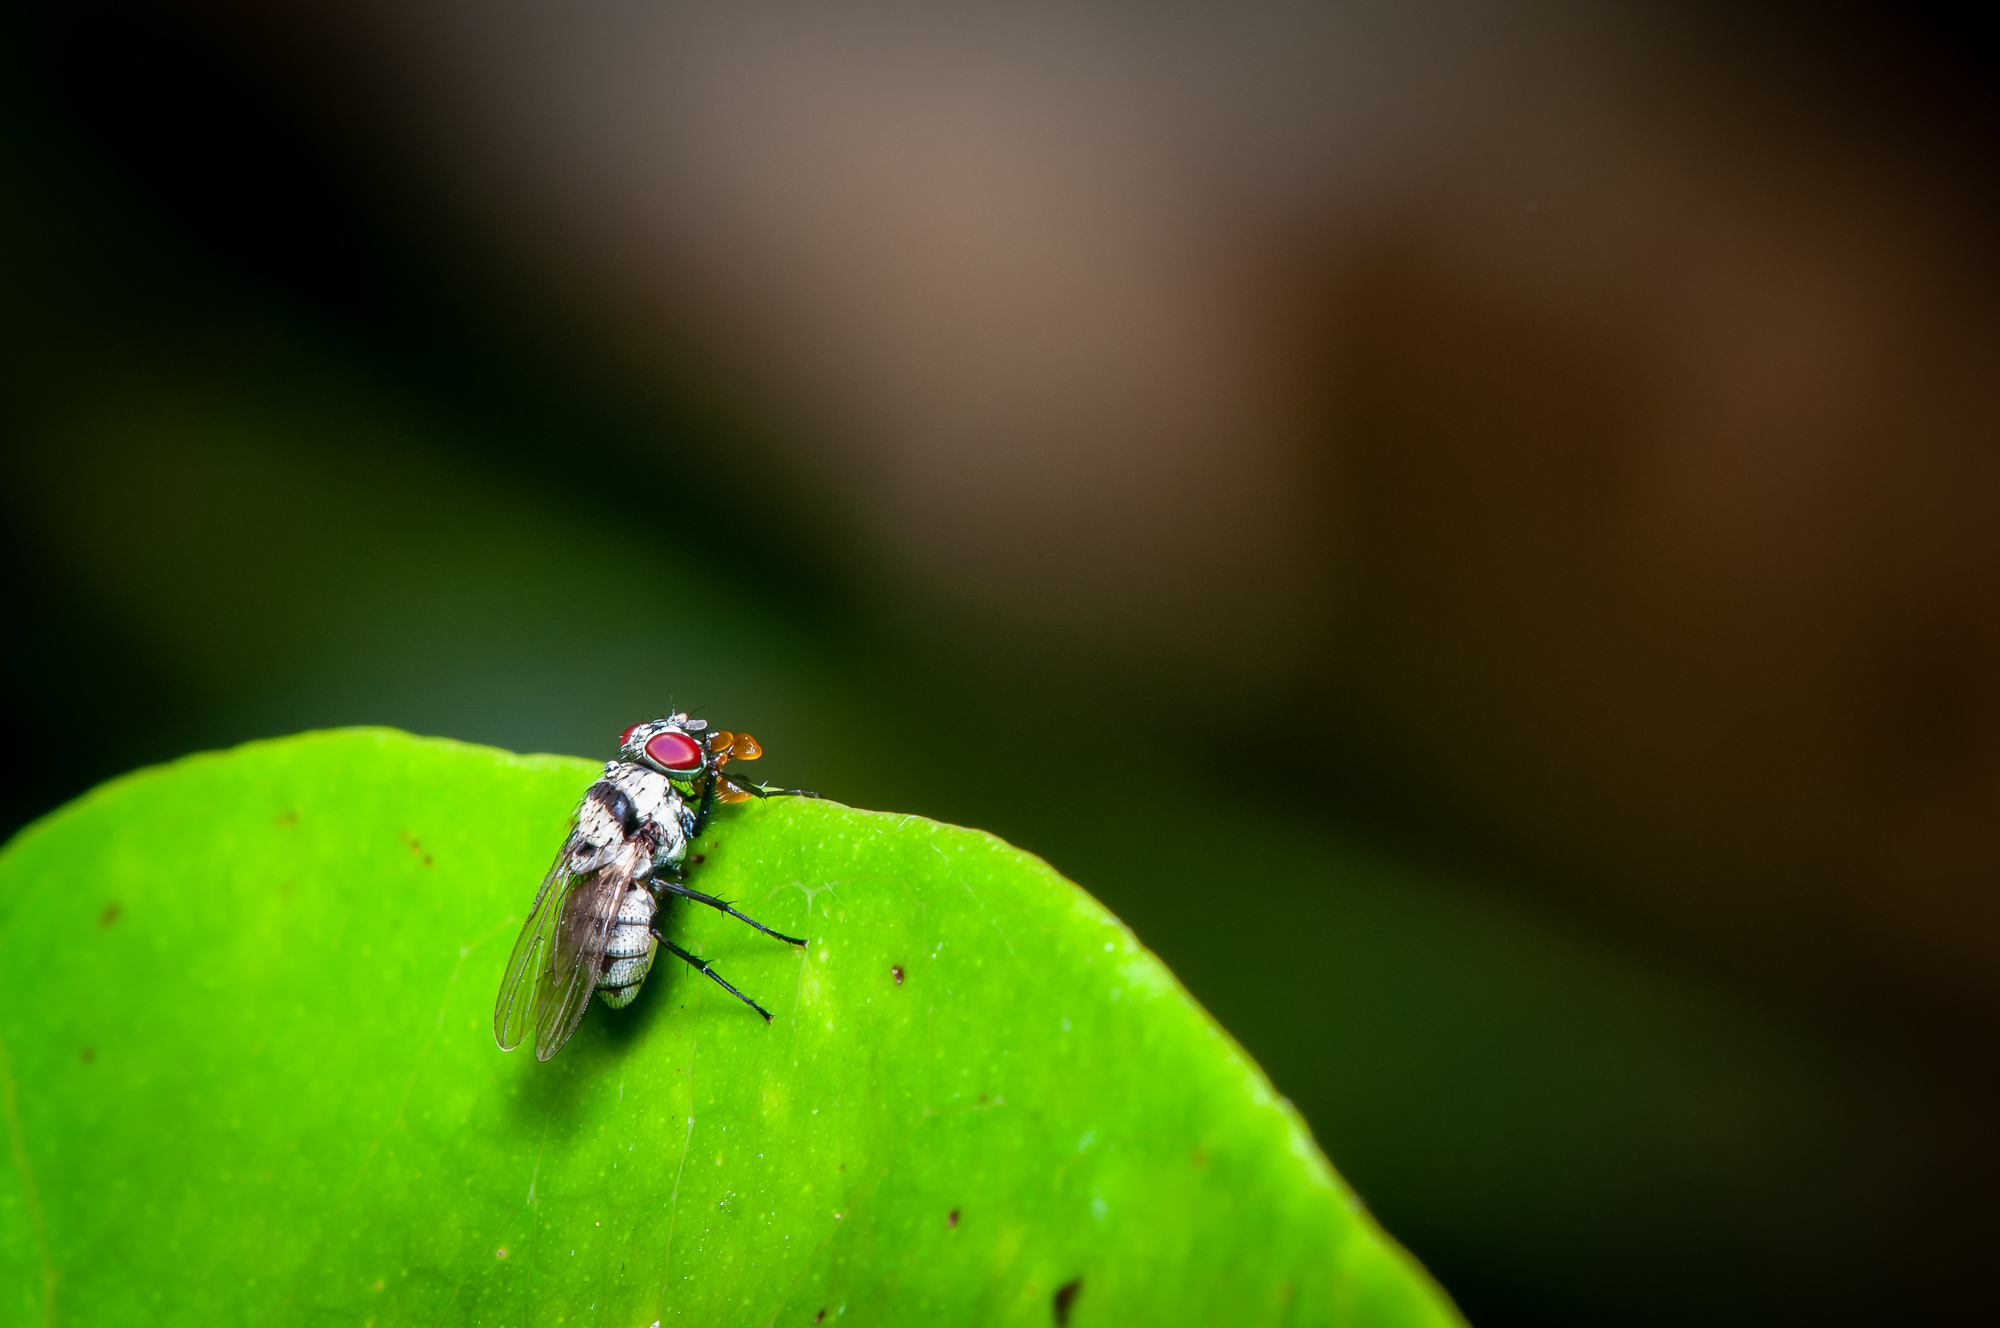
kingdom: Animalia
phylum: Arthropoda
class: Insecta
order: Diptera
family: Anthomyiidae
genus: Anthomyia
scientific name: Anthomyia illocata
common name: Fly
